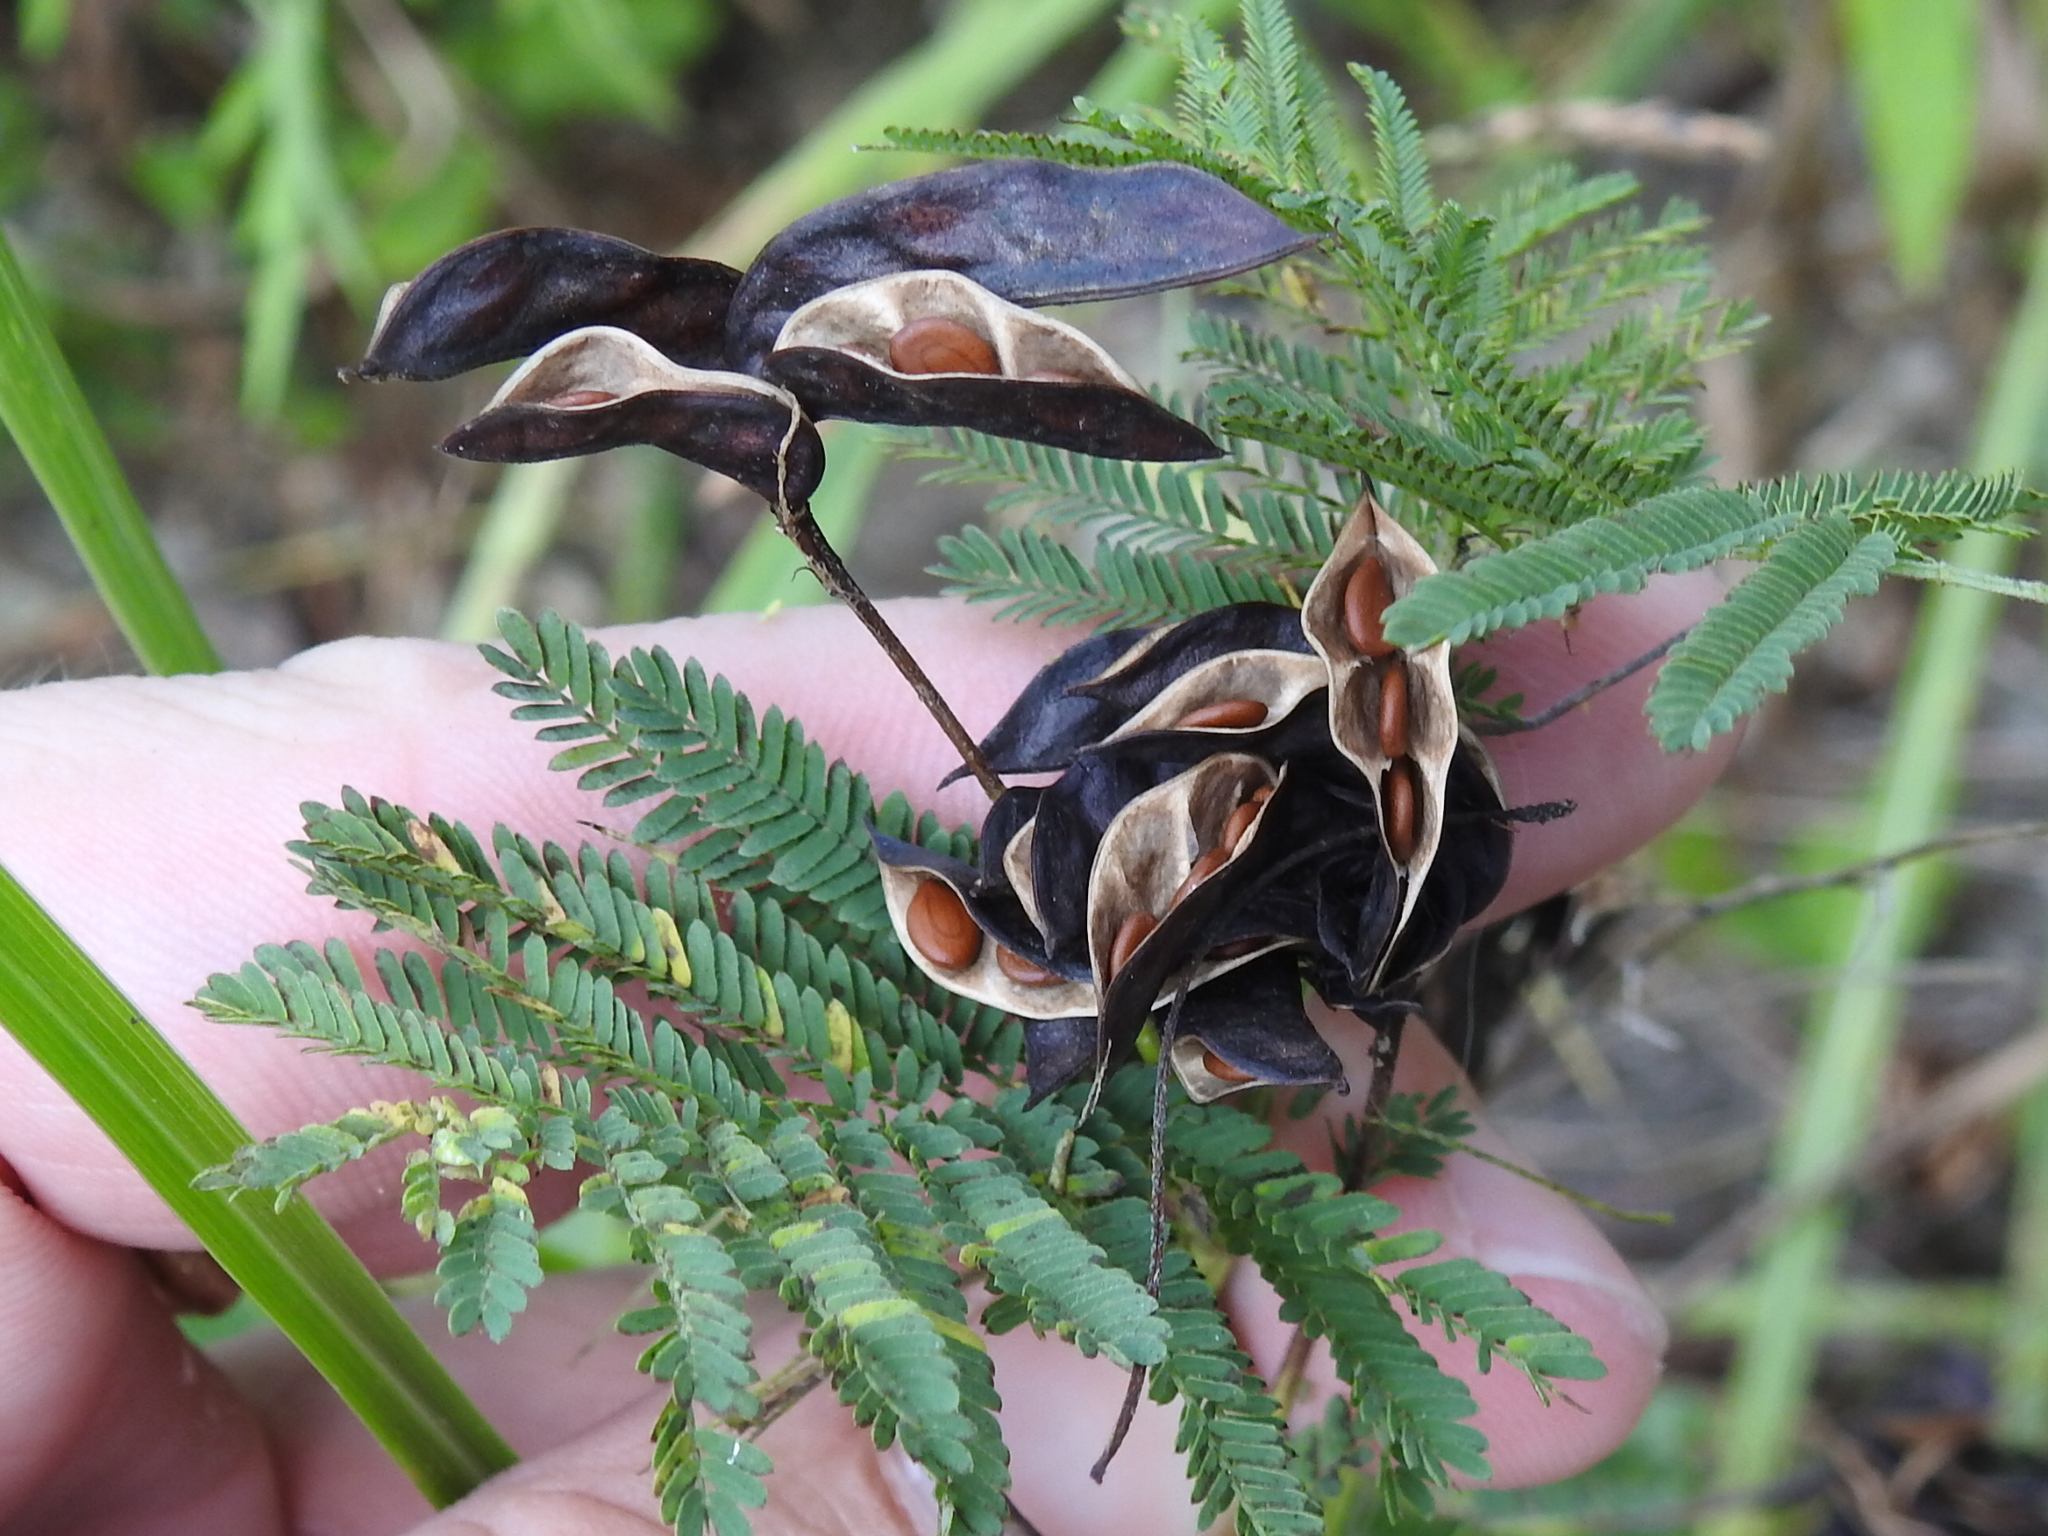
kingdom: Plantae
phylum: Tracheophyta
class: Magnoliopsida
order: Fabales
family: Fabaceae
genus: Desmanthus
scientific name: Desmanthus illinoensis
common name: Illinois bundle-flower
